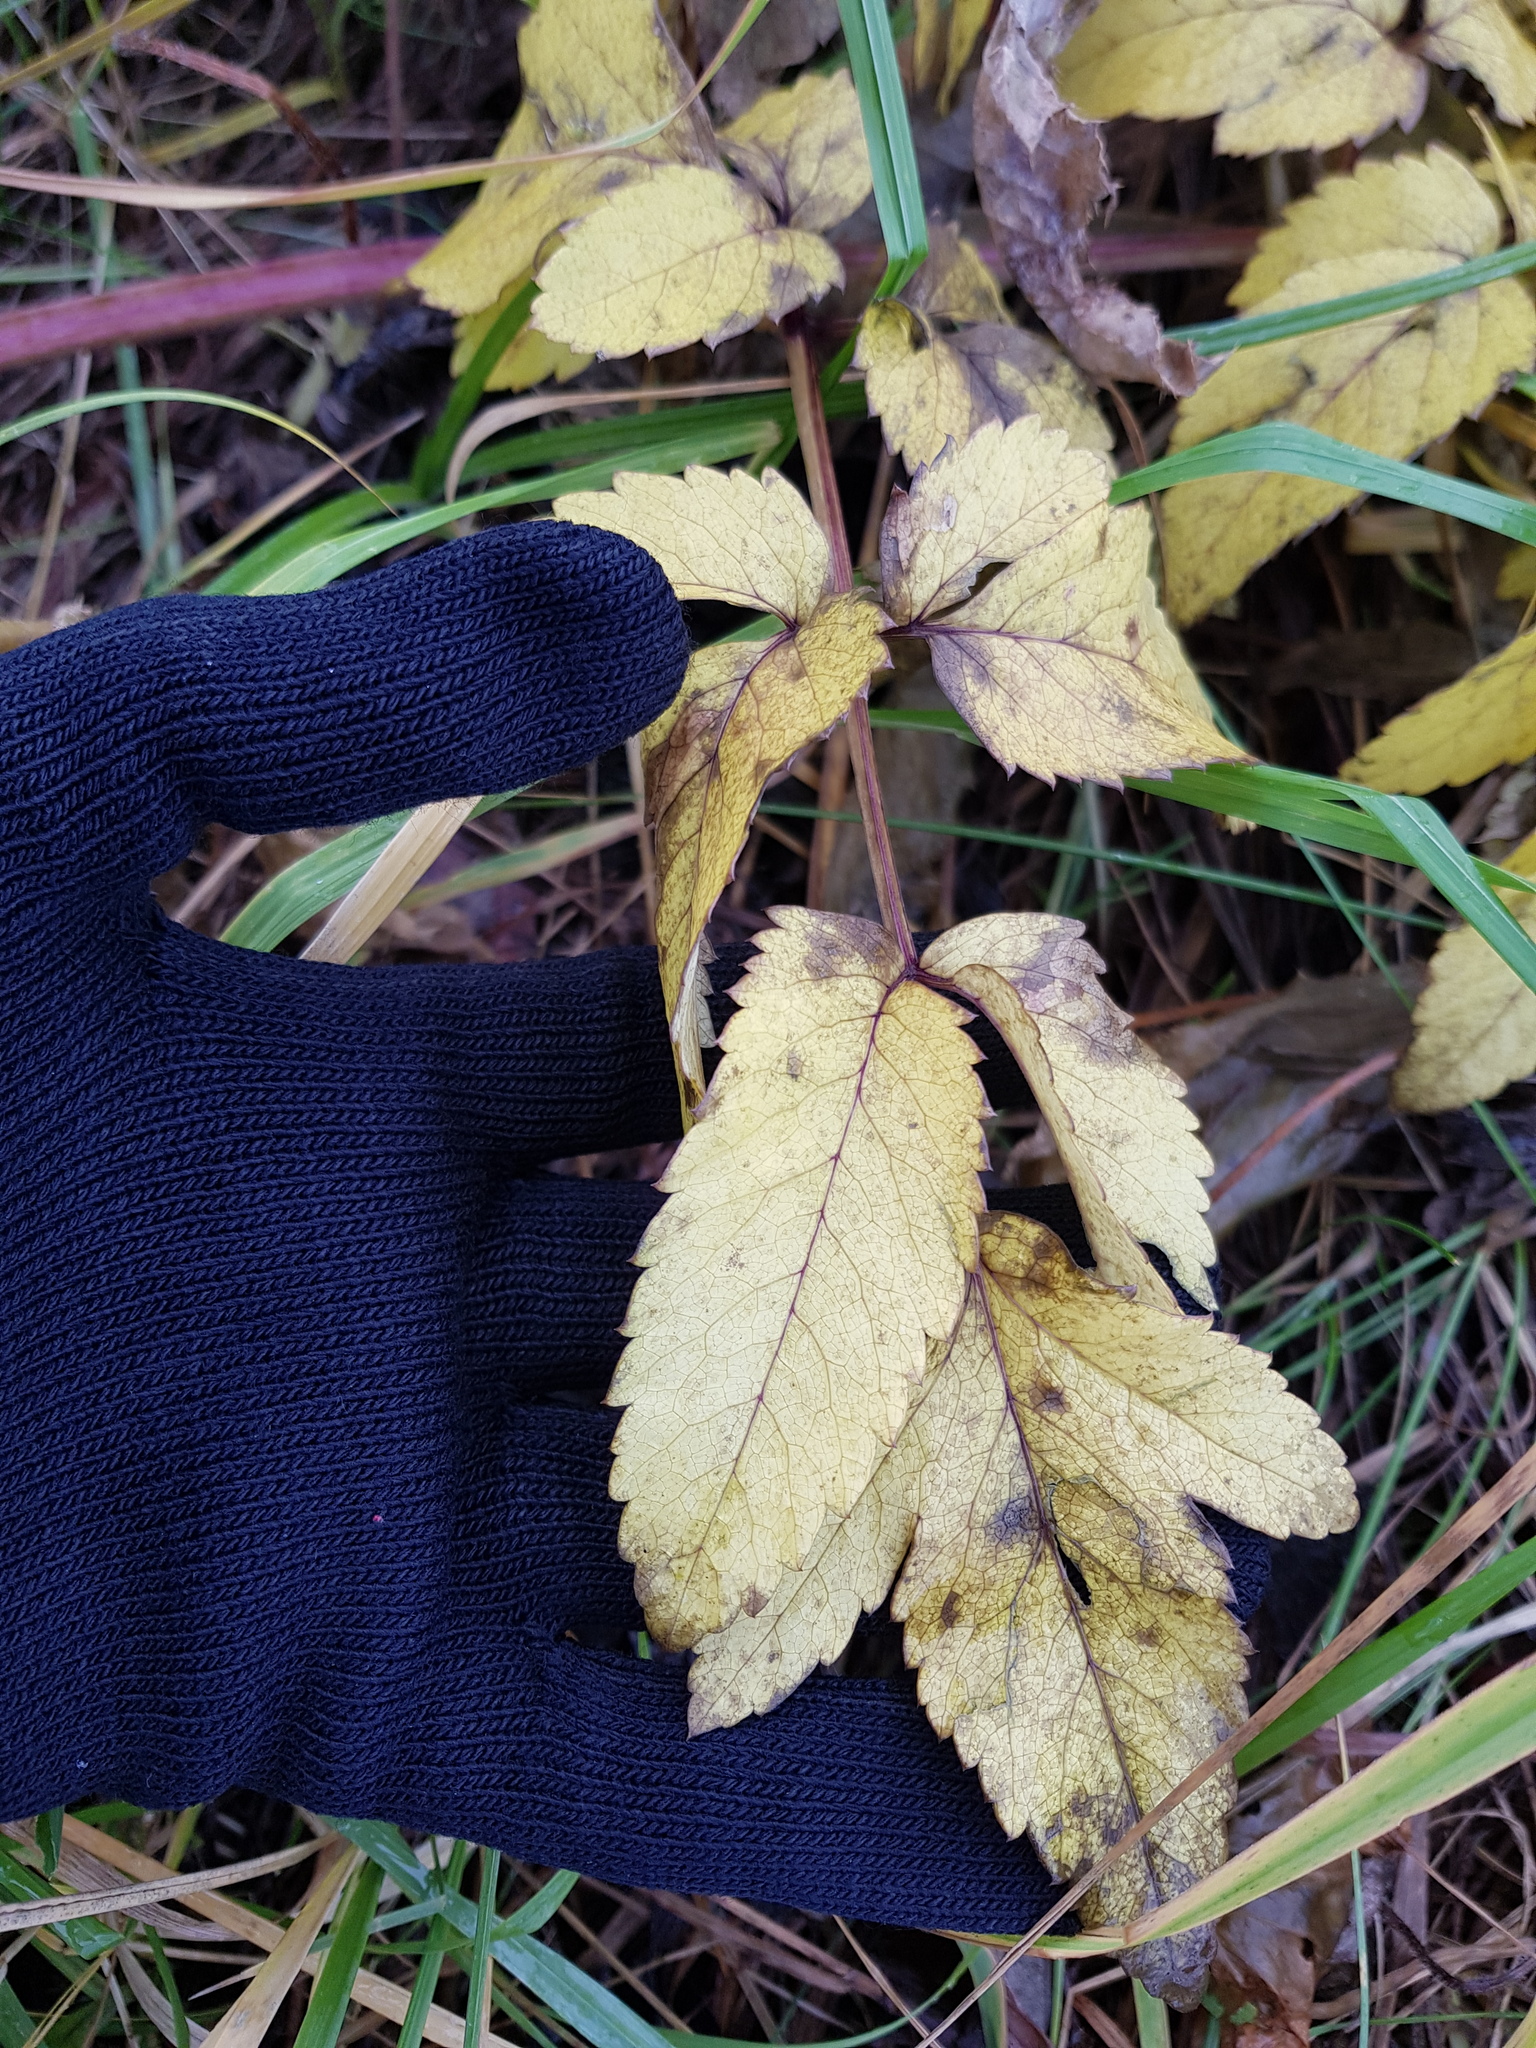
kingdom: Plantae
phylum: Tracheophyta
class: Magnoliopsida
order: Apiales
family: Apiaceae
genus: Angelica
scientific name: Angelica sylvestris
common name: Wild angelica
